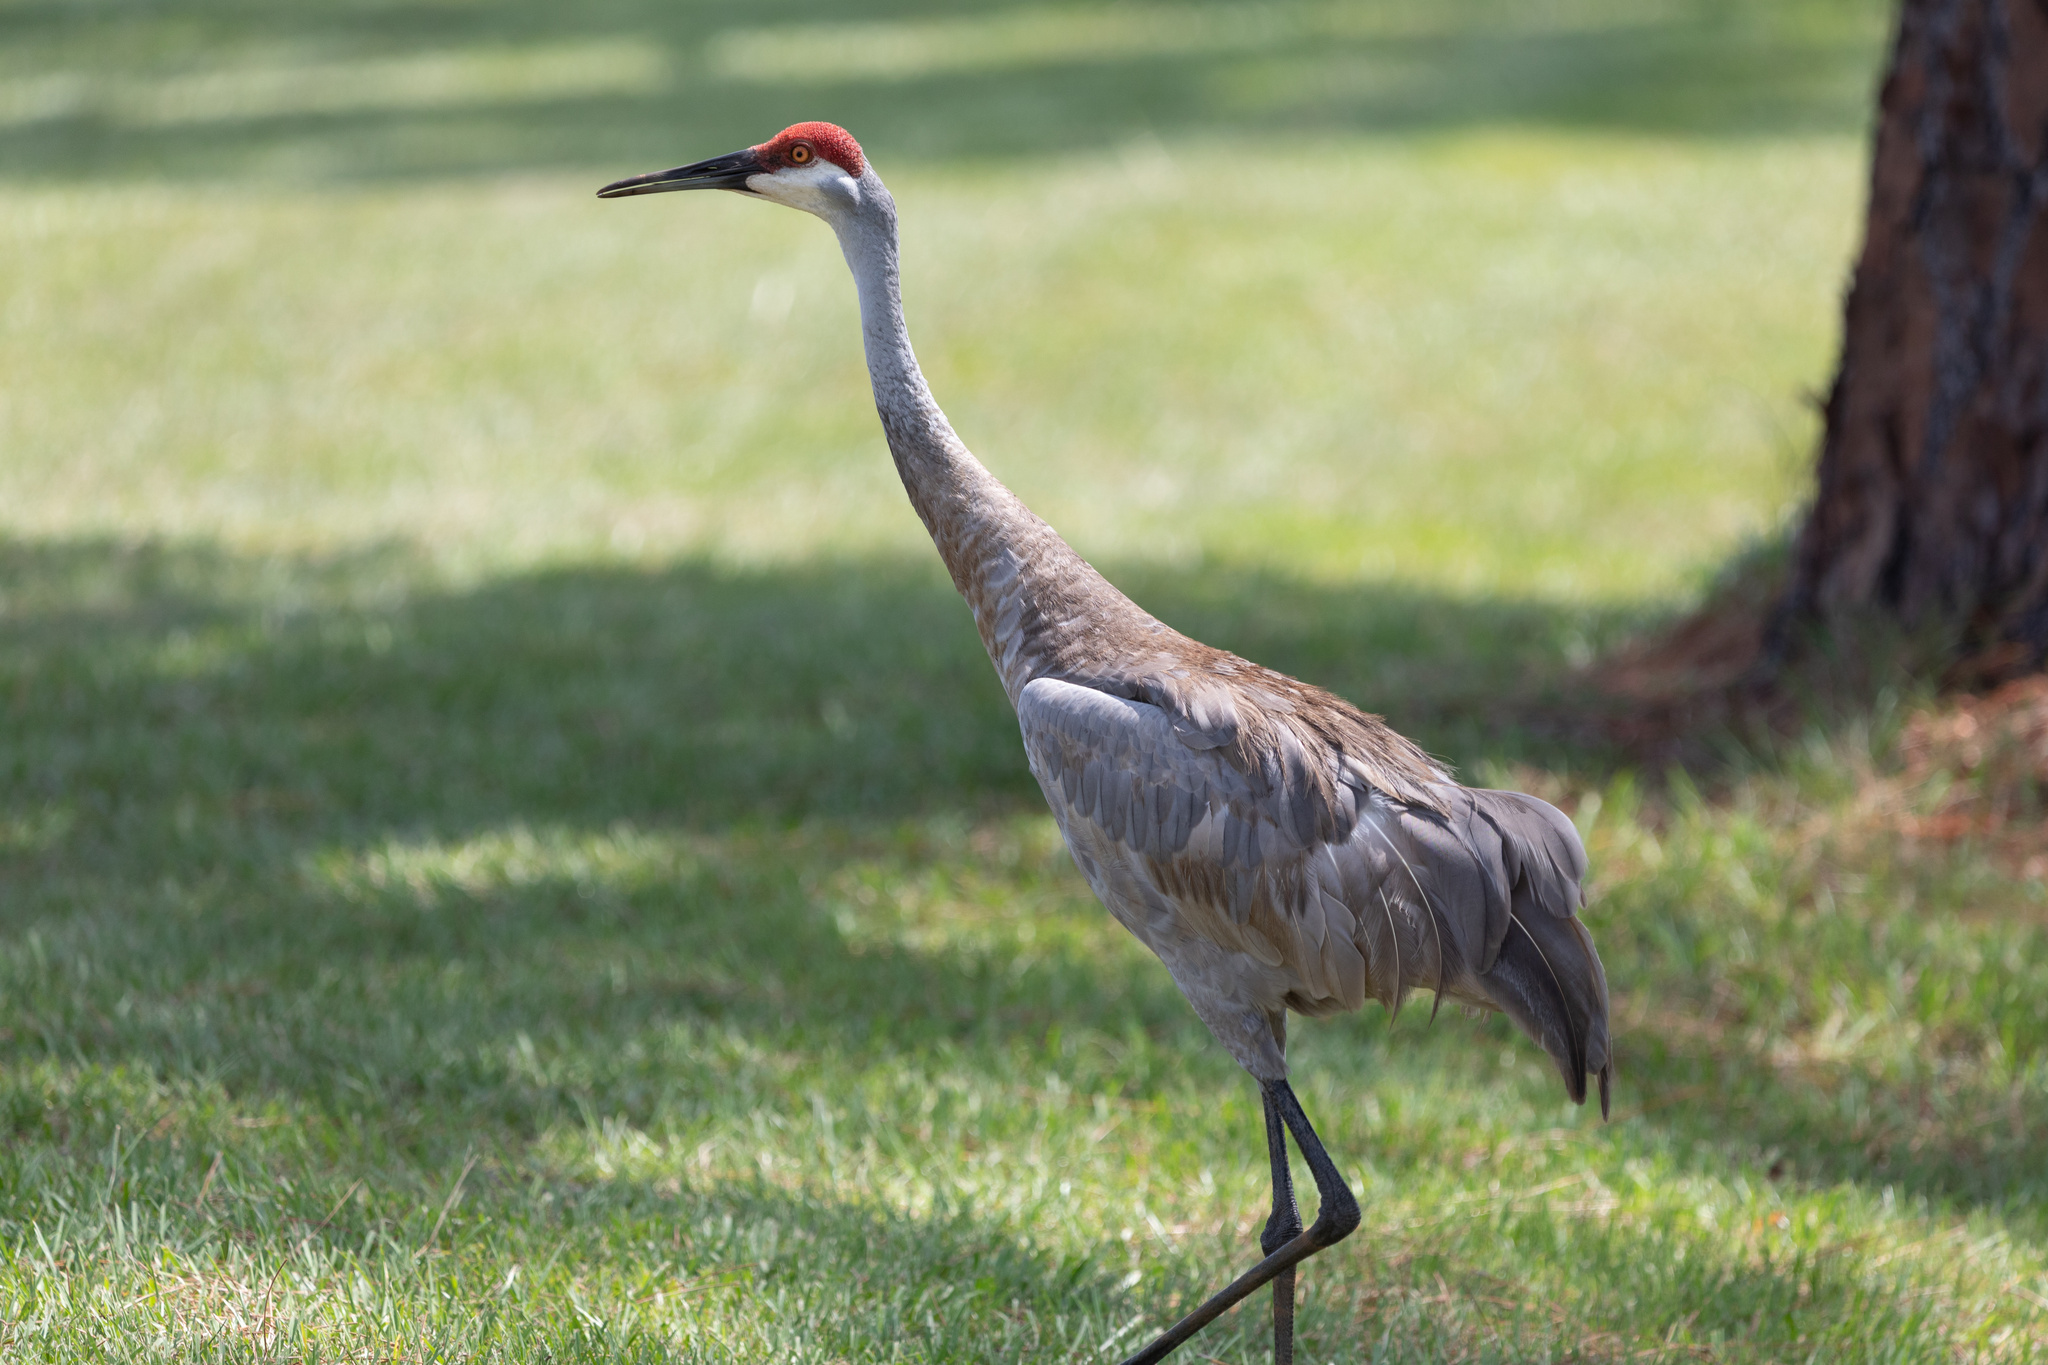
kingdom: Animalia
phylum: Chordata
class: Aves
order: Gruiformes
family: Gruidae
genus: Grus
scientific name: Grus canadensis
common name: Sandhill crane
